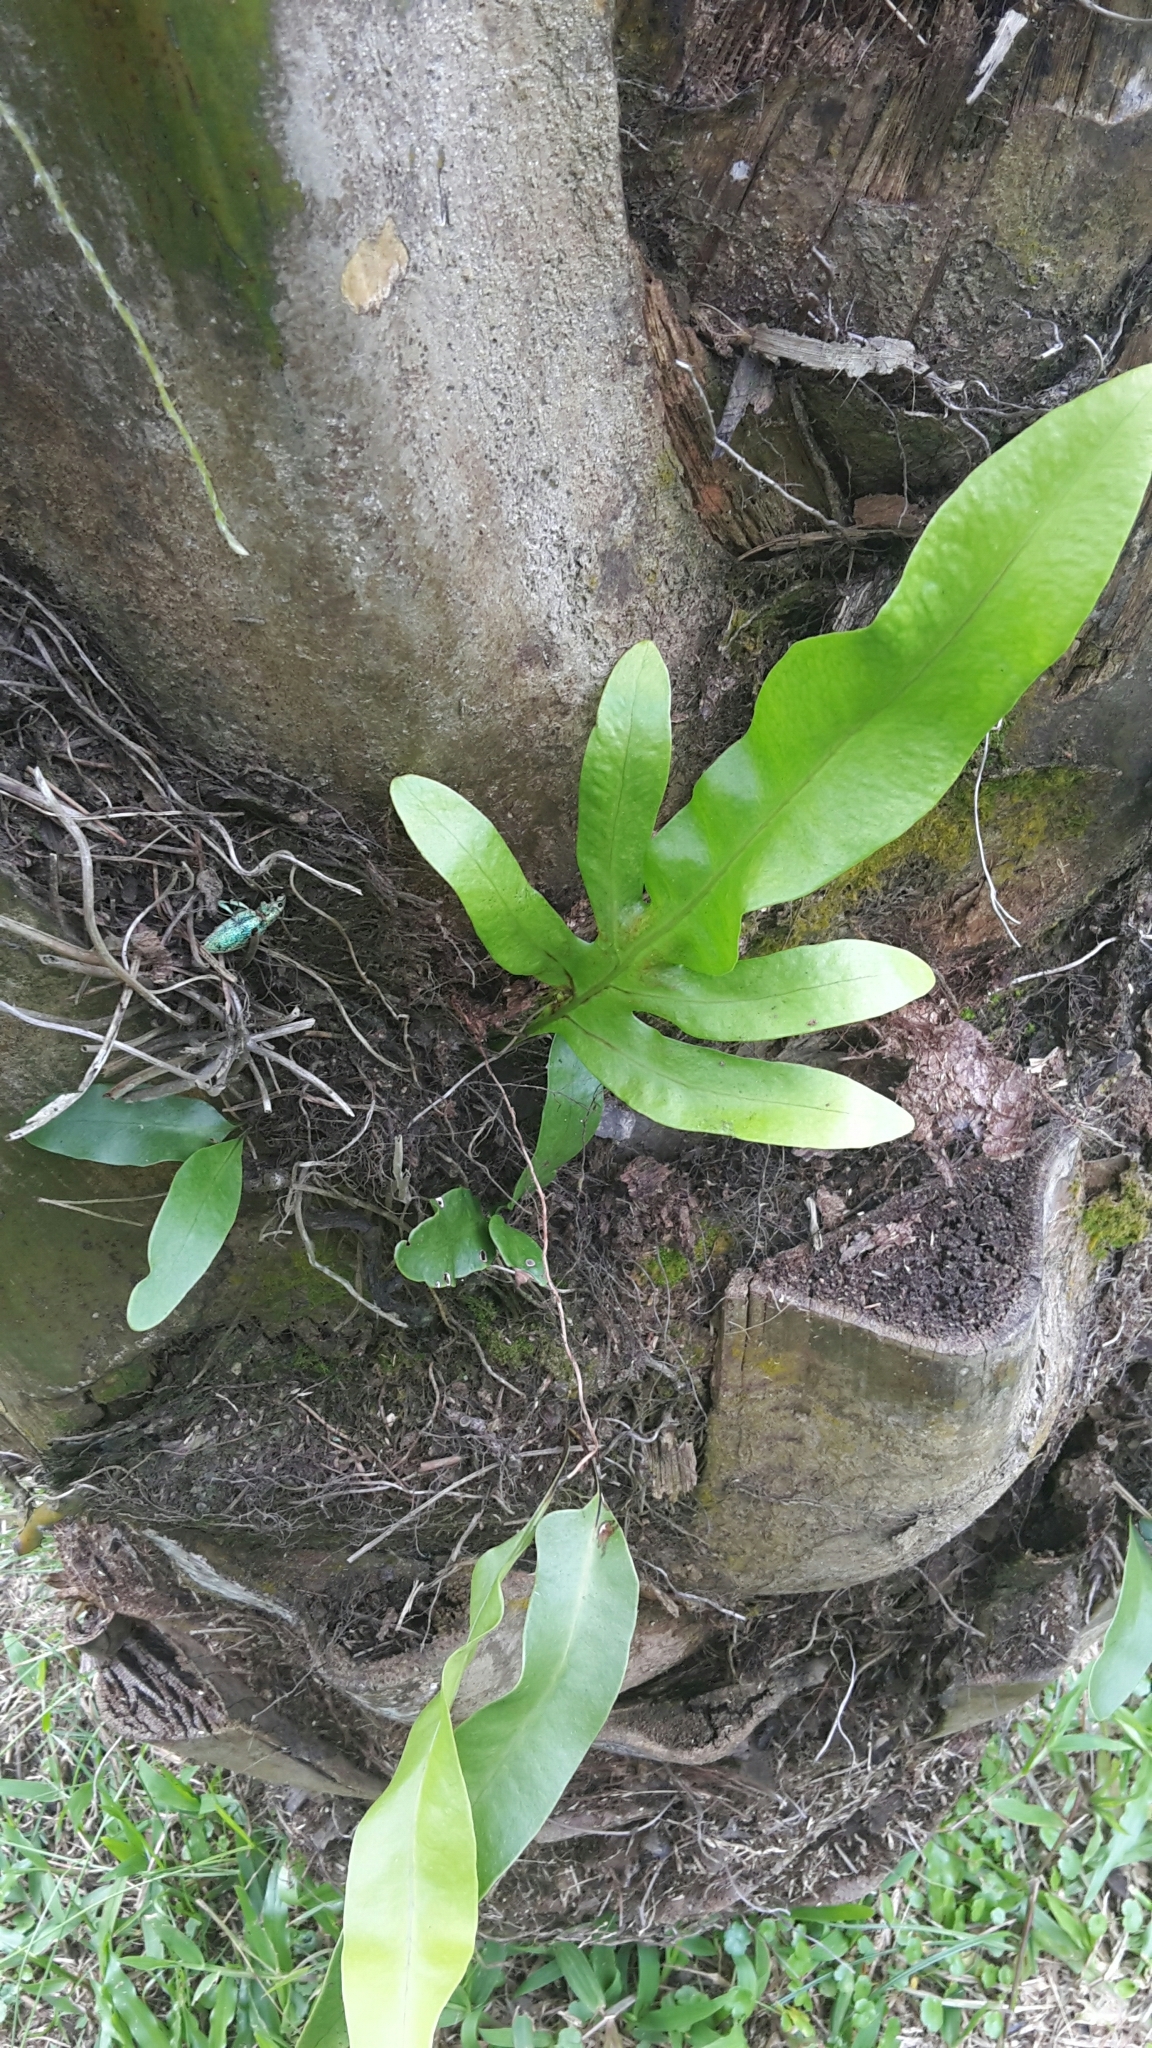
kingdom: Plantae
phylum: Tracheophyta
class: Polypodiopsida
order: Polypodiales
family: Polypodiaceae
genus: Microsorum
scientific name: Microsorum scolopendria
